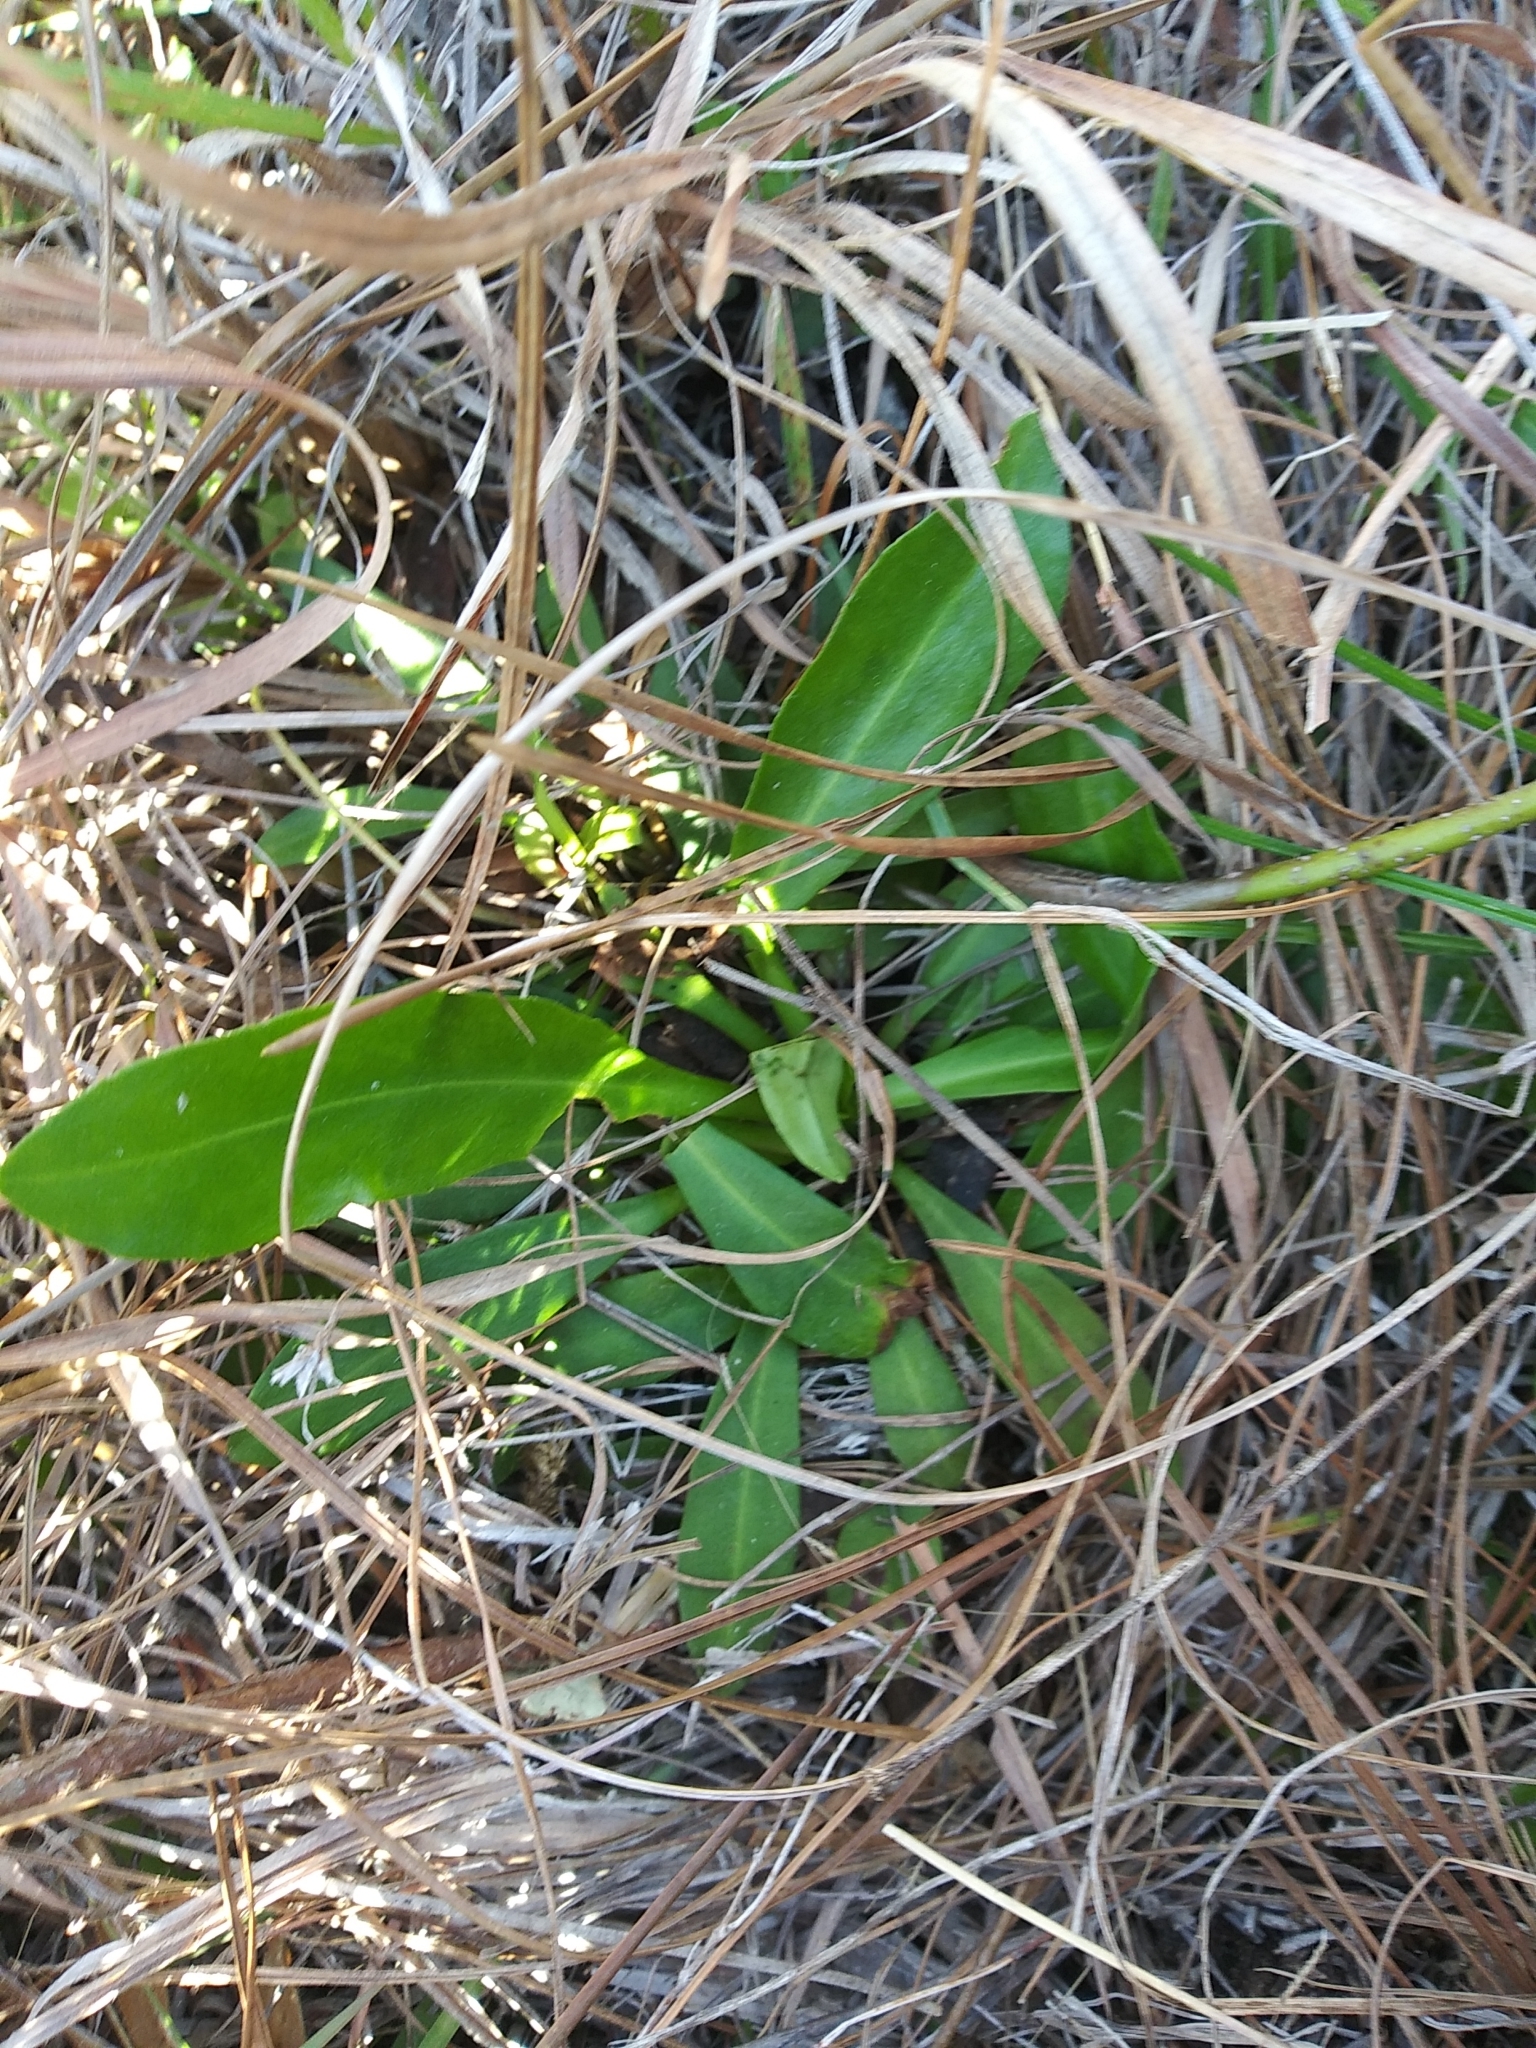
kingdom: Plantae
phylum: Tracheophyta
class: Magnoliopsida
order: Asterales
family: Asteraceae
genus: Chaptalia
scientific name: Chaptalia tomentosa
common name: Woolly sunbonnet
